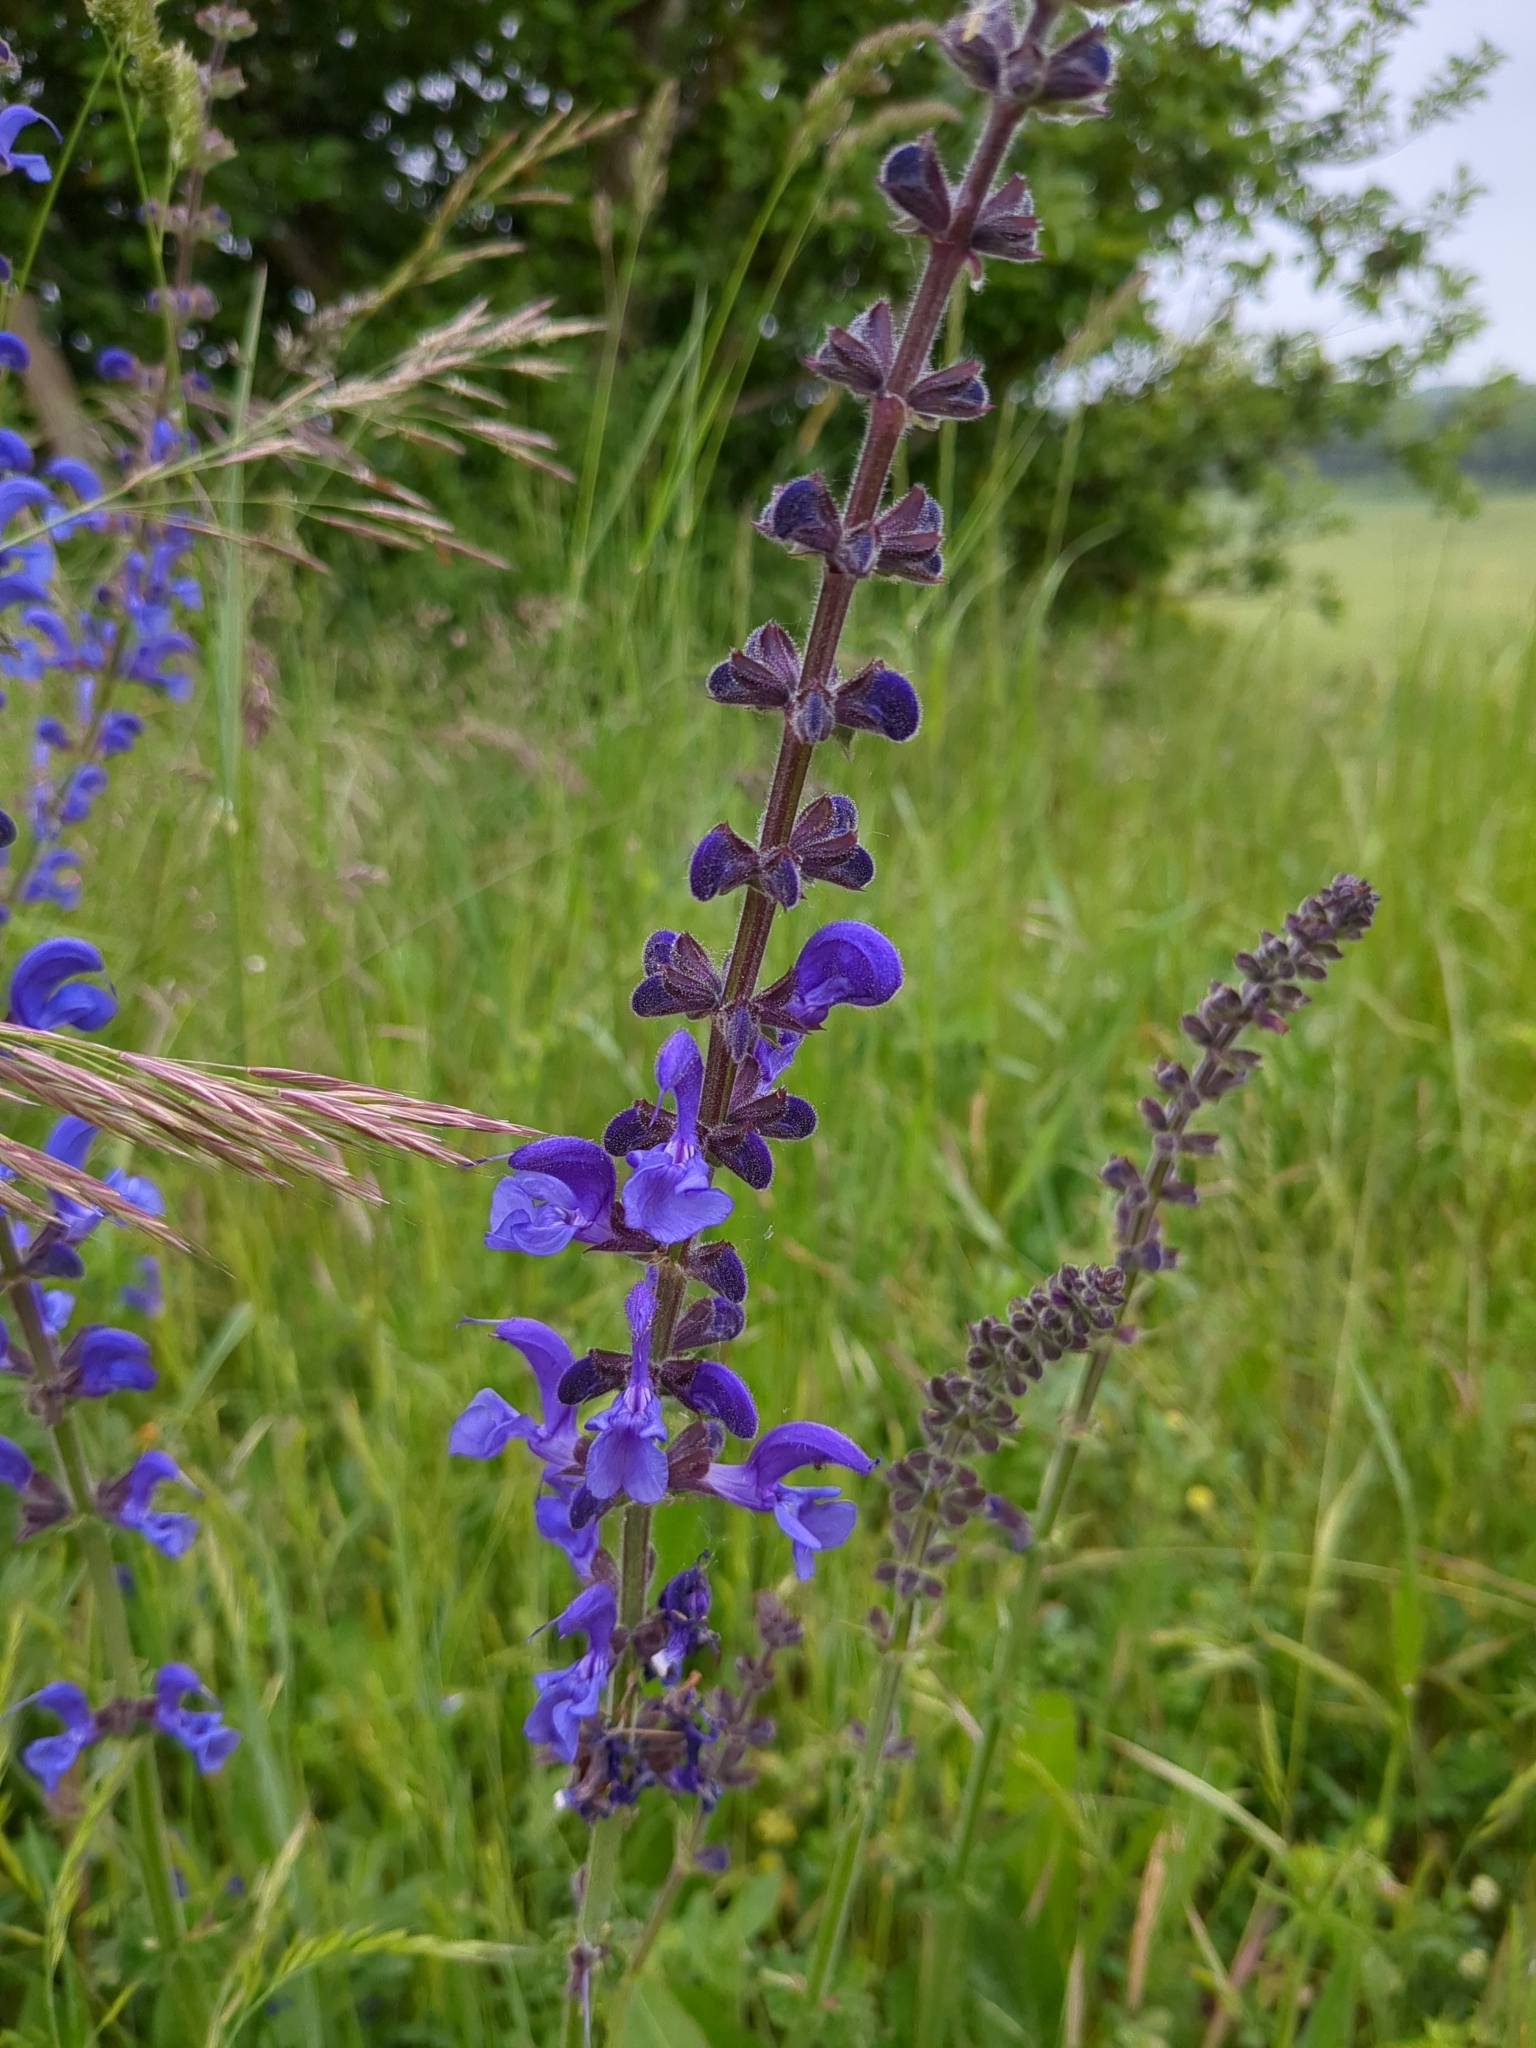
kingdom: Plantae
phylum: Tracheophyta
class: Magnoliopsida
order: Lamiales
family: Lamiaceae
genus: Salvia
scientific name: Salvia pratensis
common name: Meadow sage
